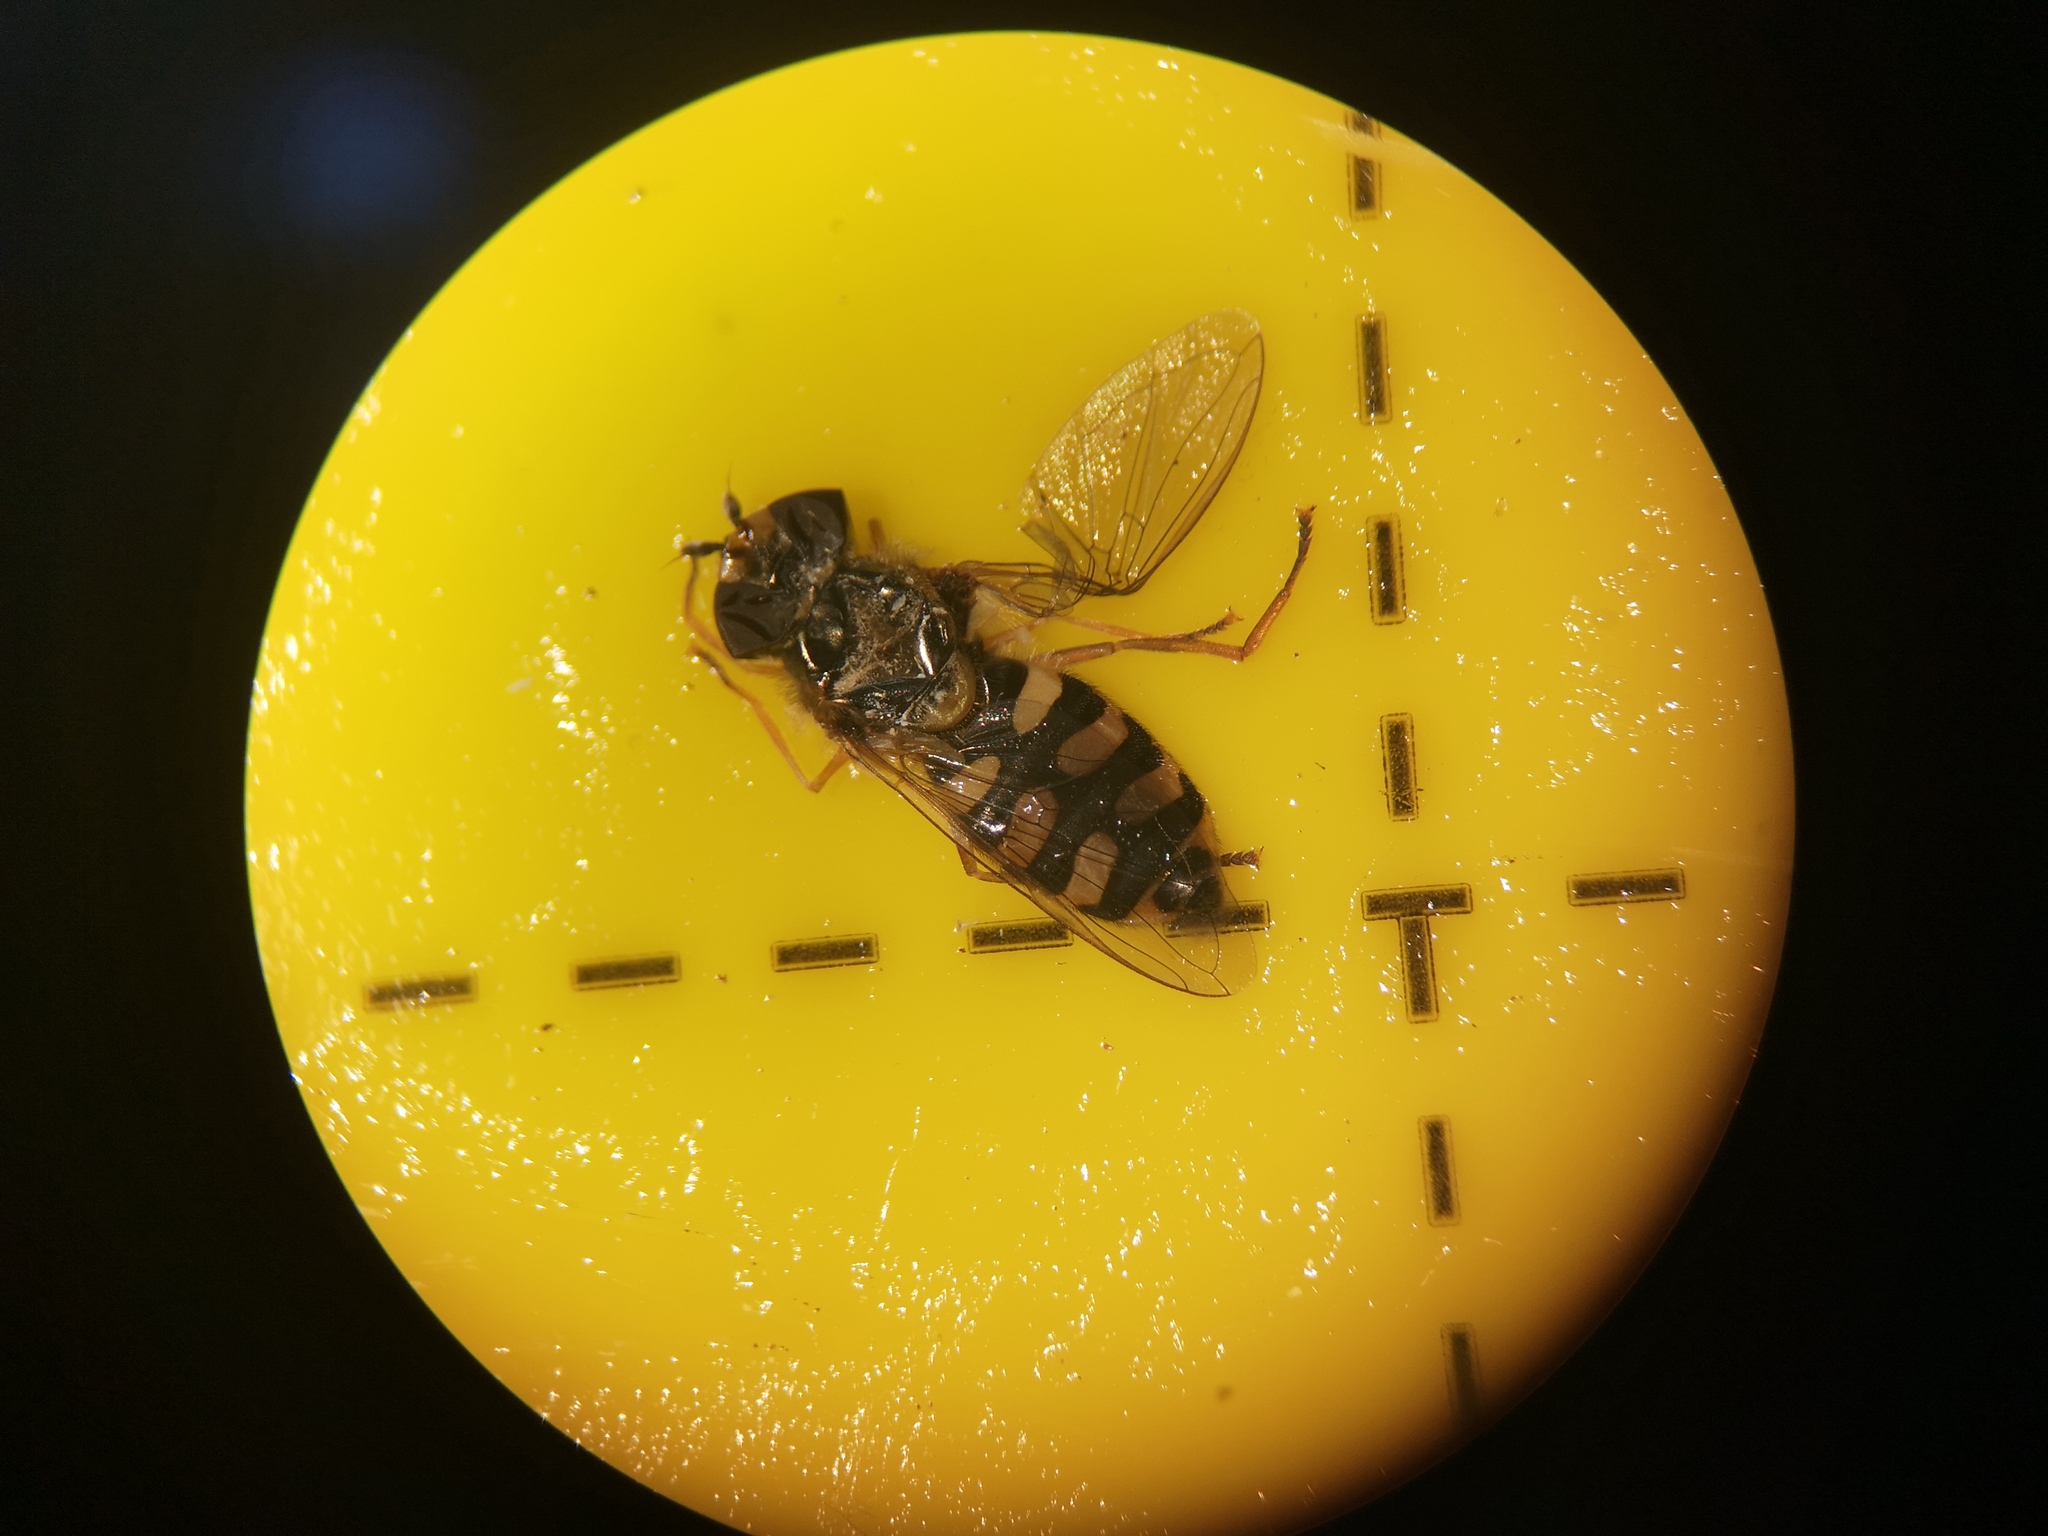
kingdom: Animalia
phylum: Arthropoda
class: Insecta
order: Diptera
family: Syrphidae
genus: Eupeodes
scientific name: Eupeodes corollae
